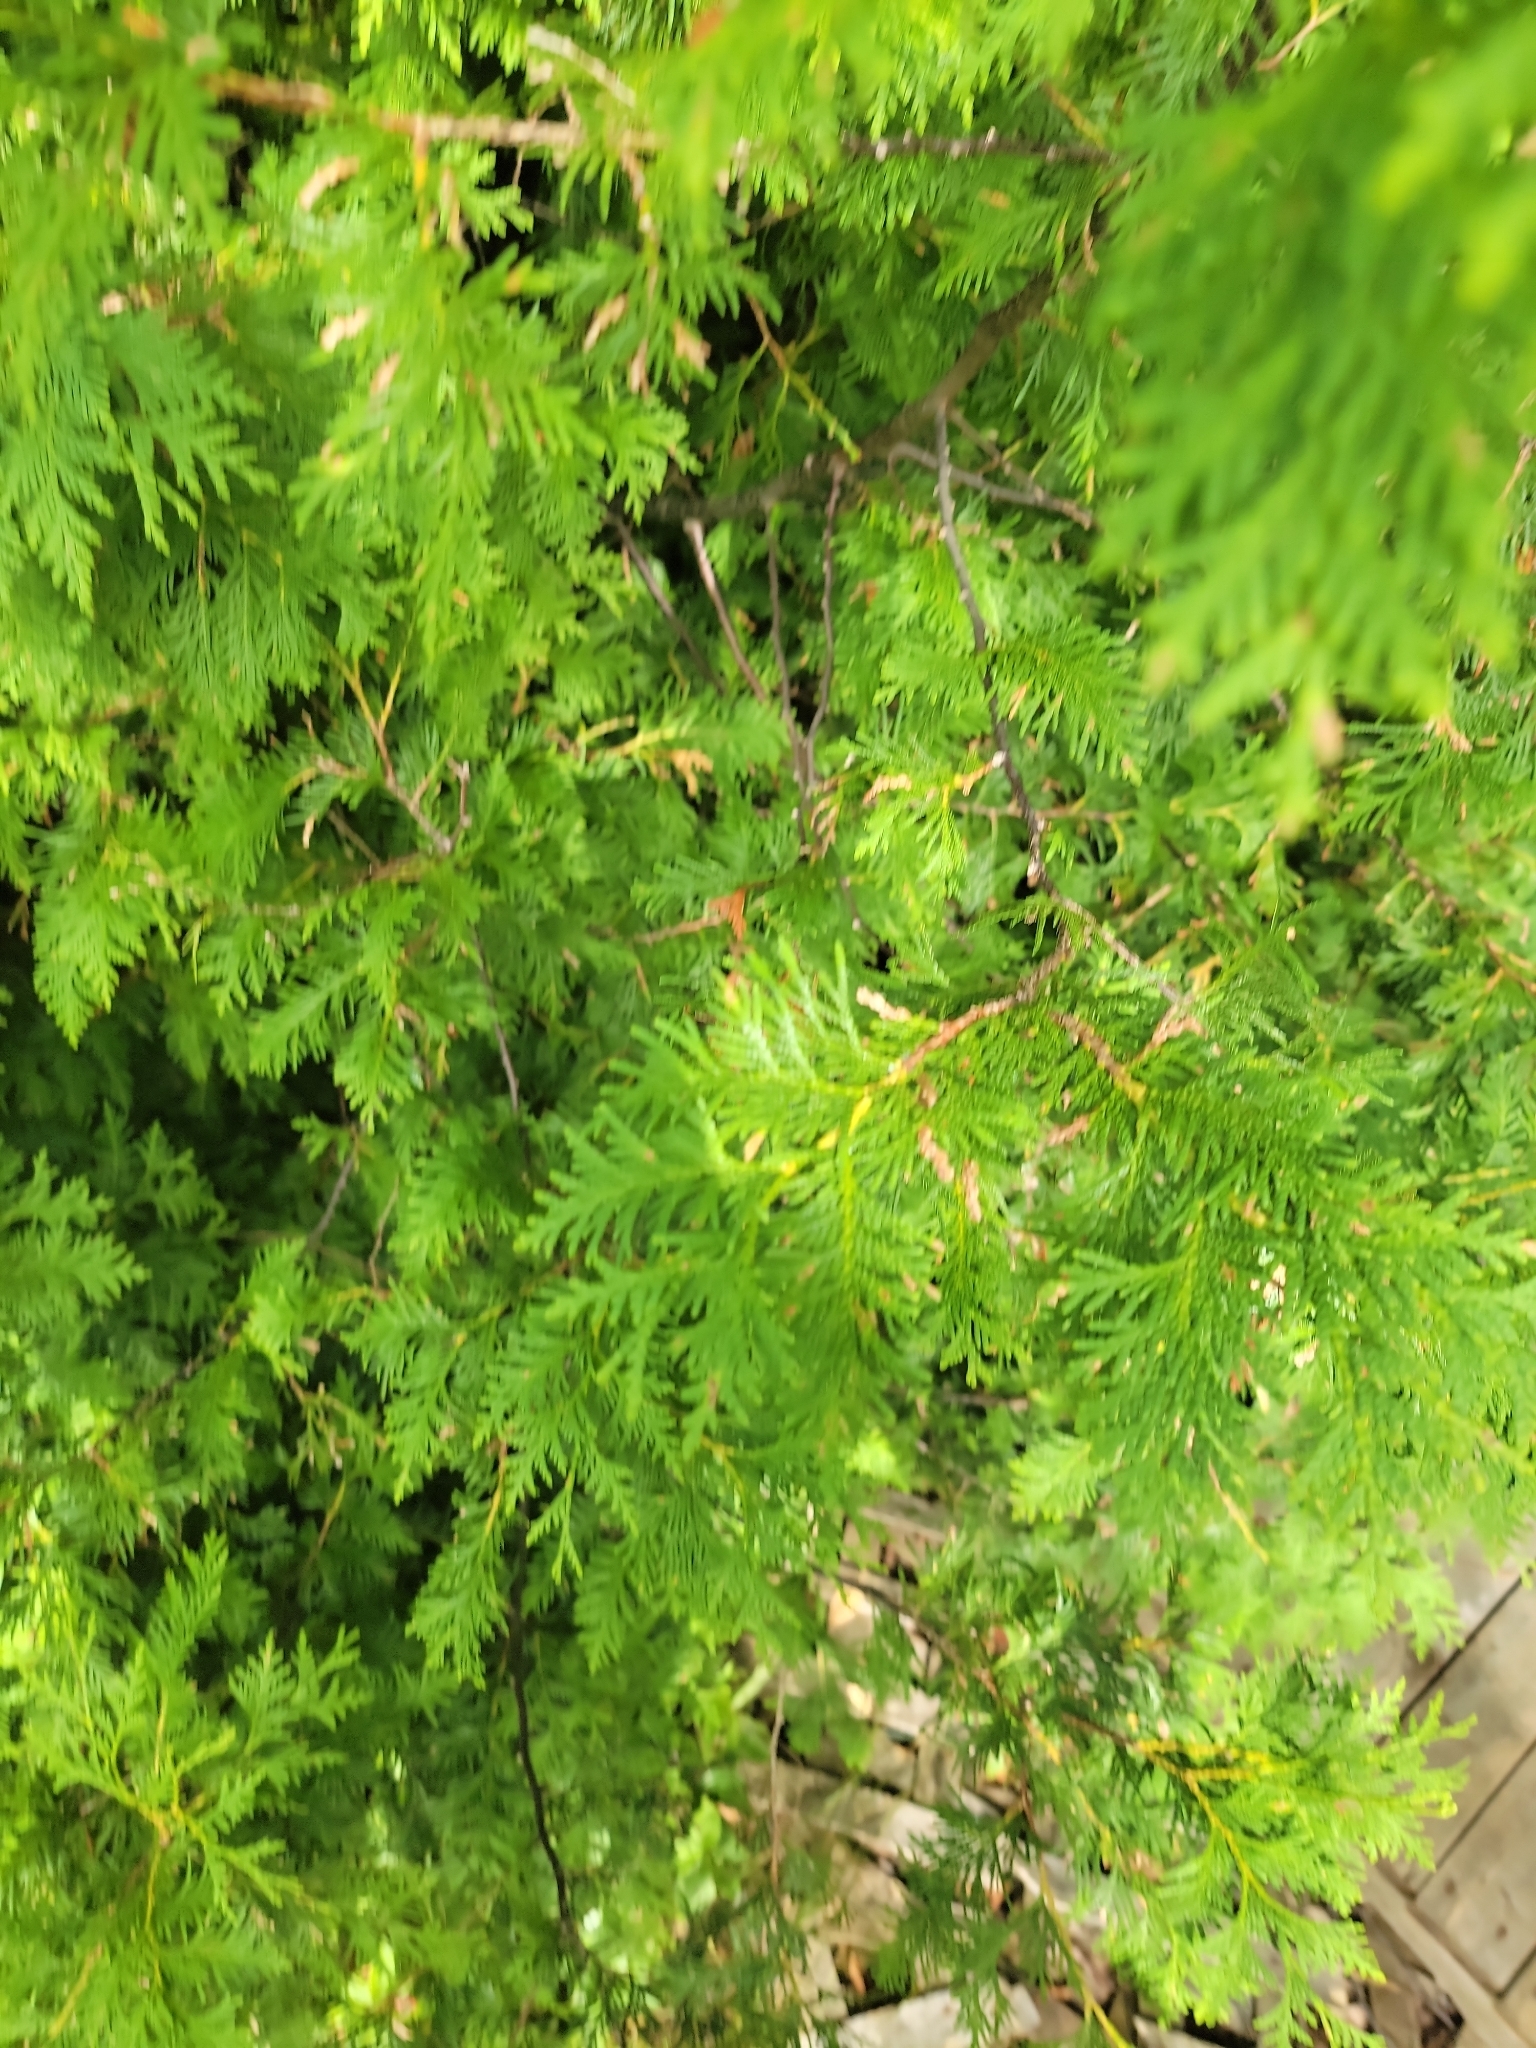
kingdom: Plantae
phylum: Tracheophyta
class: Pinopsida
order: Pinales
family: Cupressaceae
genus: Thuja
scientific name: Thuja occidentalis
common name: Northern white-cedar
